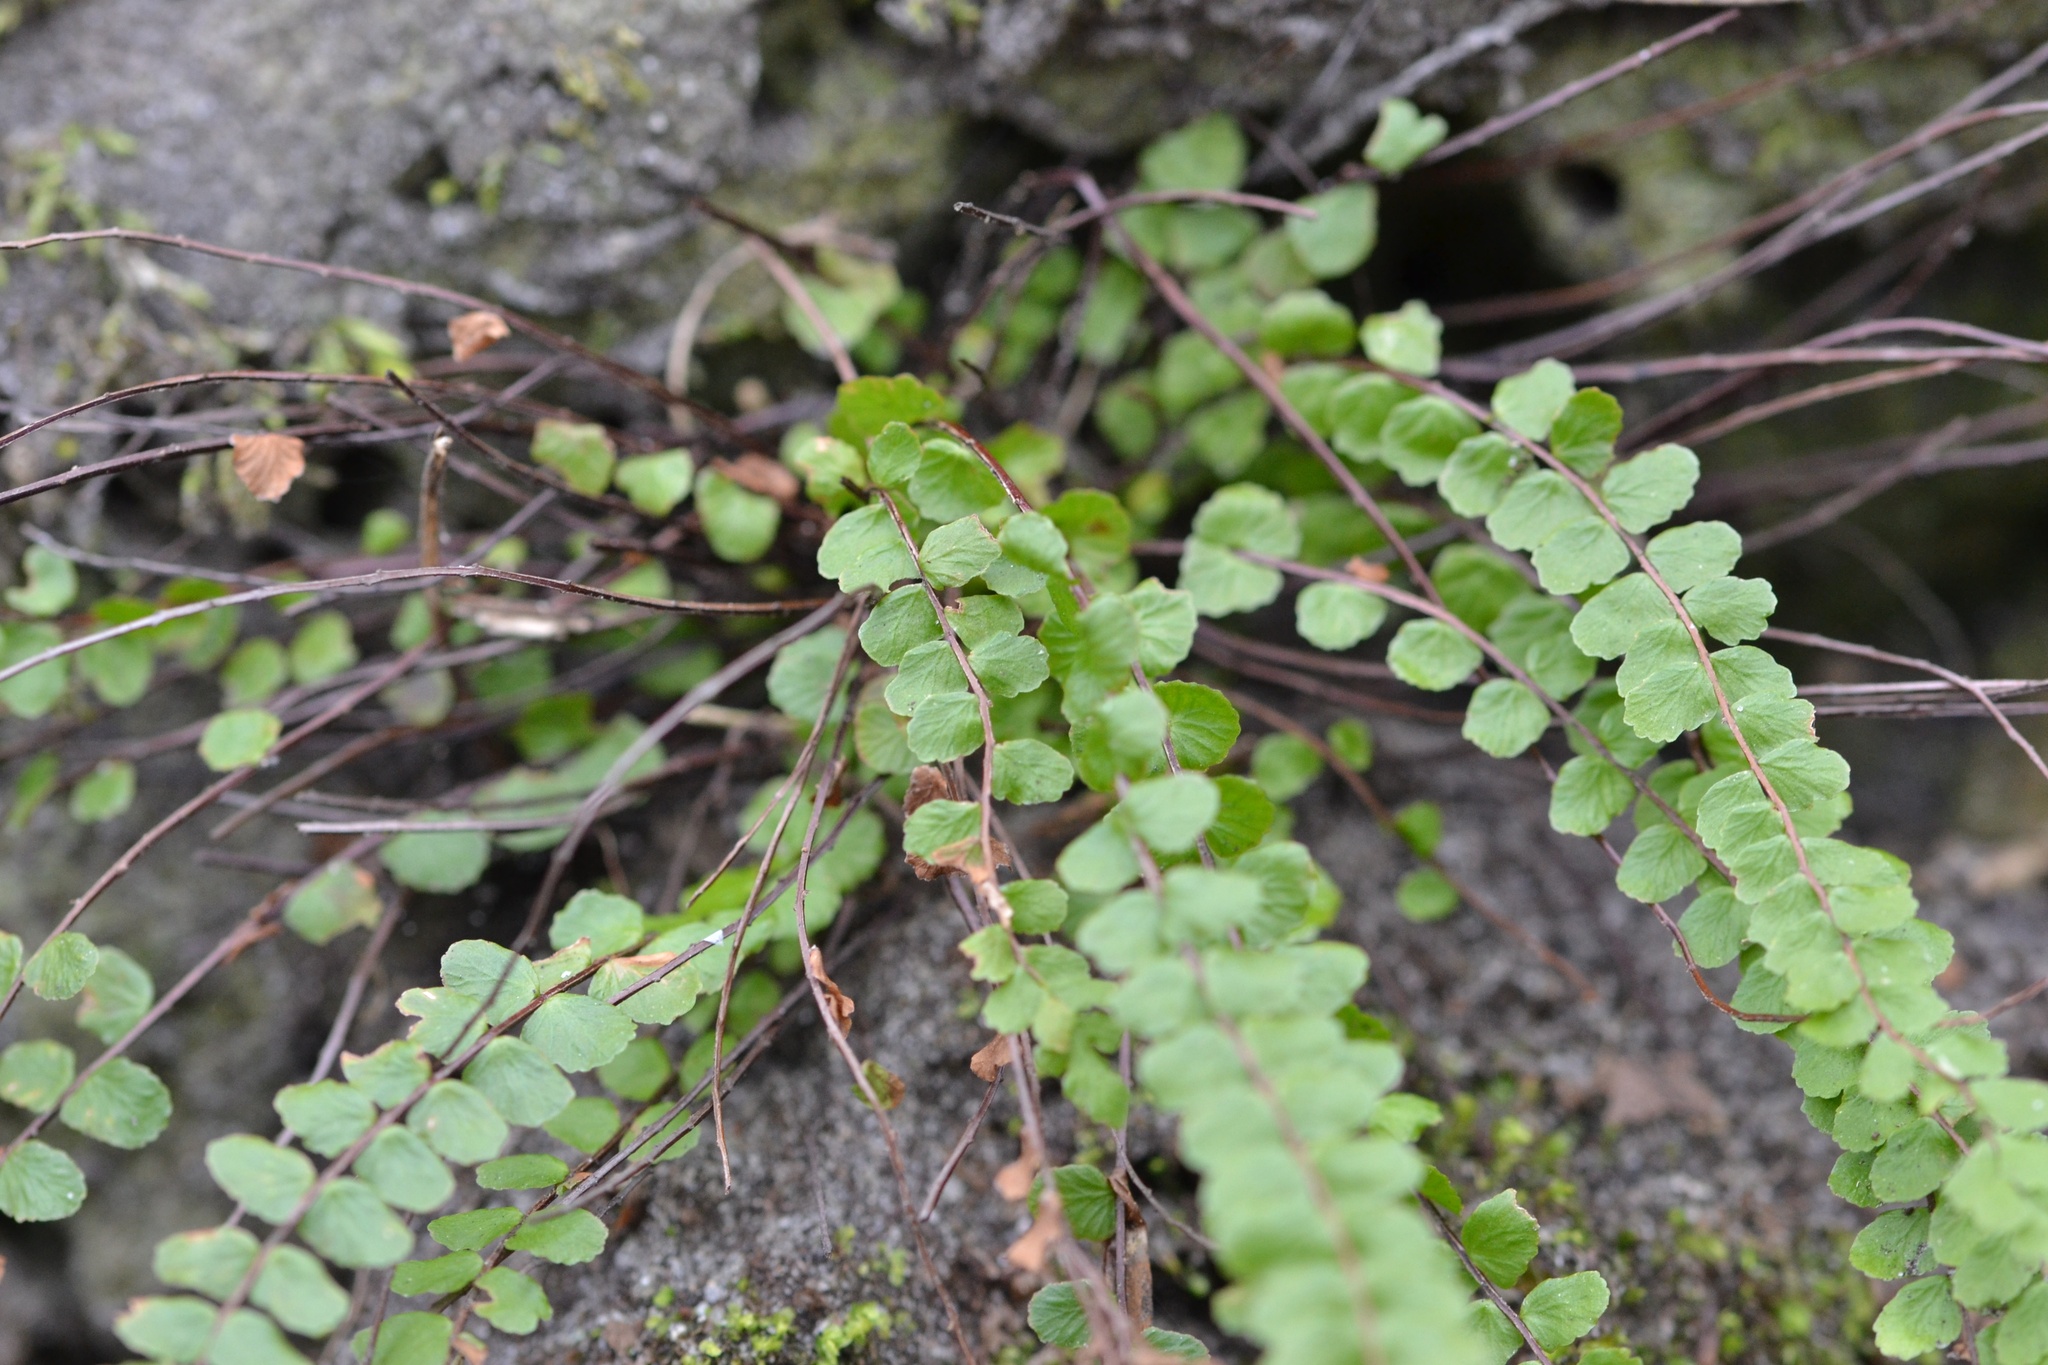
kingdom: Plantae
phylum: Tracheophyta
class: Polypodiopsida
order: Polypodiales
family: Aspleniaceae
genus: Asplenium
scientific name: Asplenium trichomanes
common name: Maidenhair spleenwort
